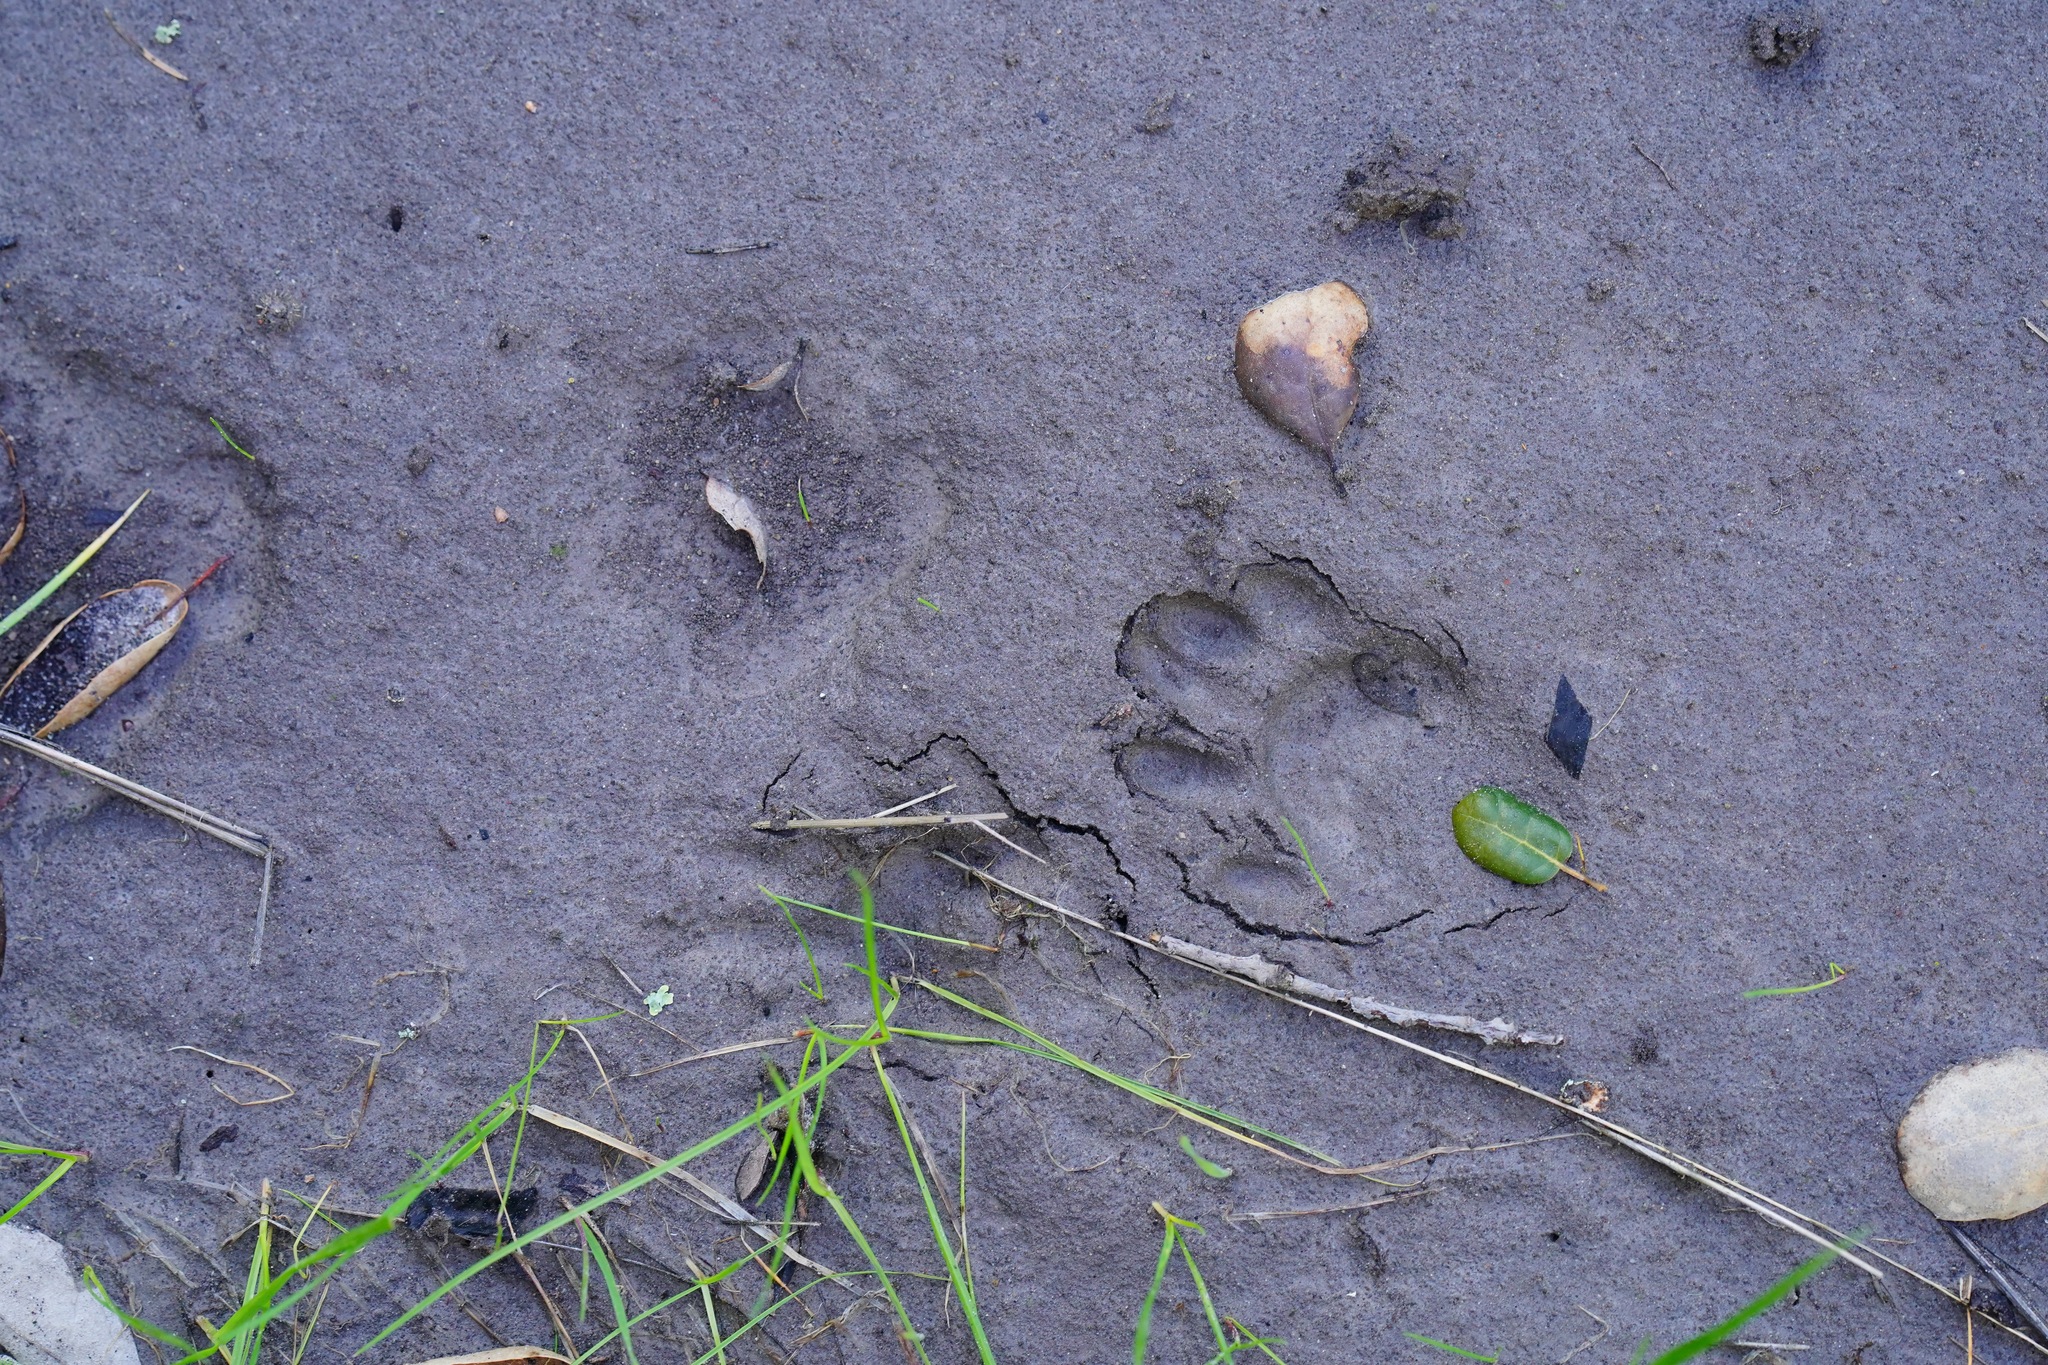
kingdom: Animalia
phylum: Chordata
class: Mammalia
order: Carnivora
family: Procyonidae
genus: Procyon
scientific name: Procyon lotor
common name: Raccoon
